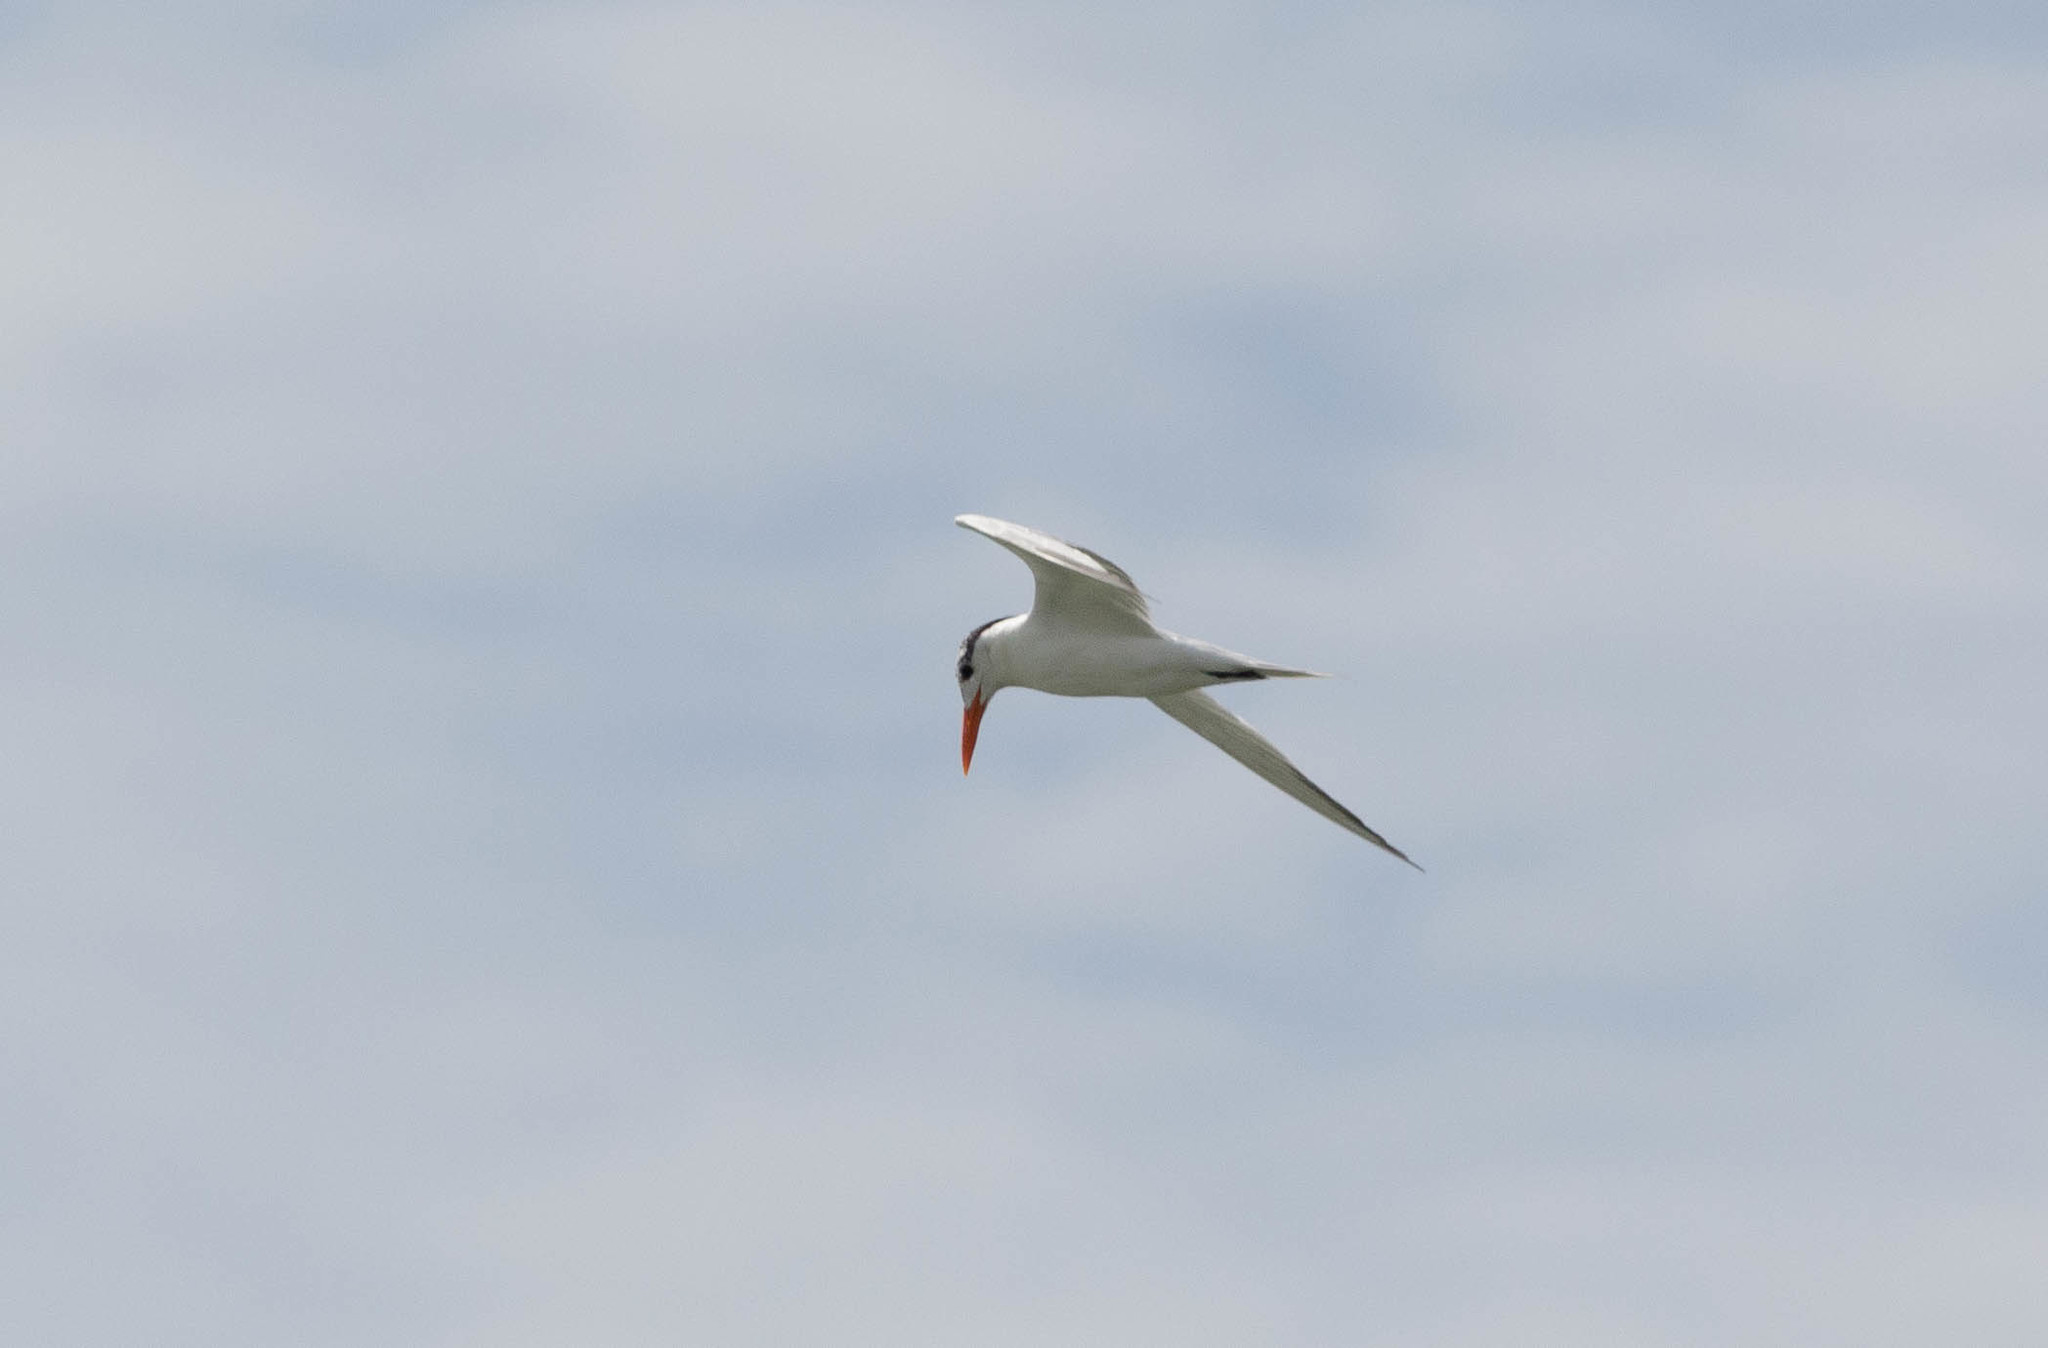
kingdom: Animalia
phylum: Chordata
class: Aves
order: Charadriiformes
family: Laridae
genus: Thalasseus
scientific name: Thalasseus maximus
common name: Royal tern
